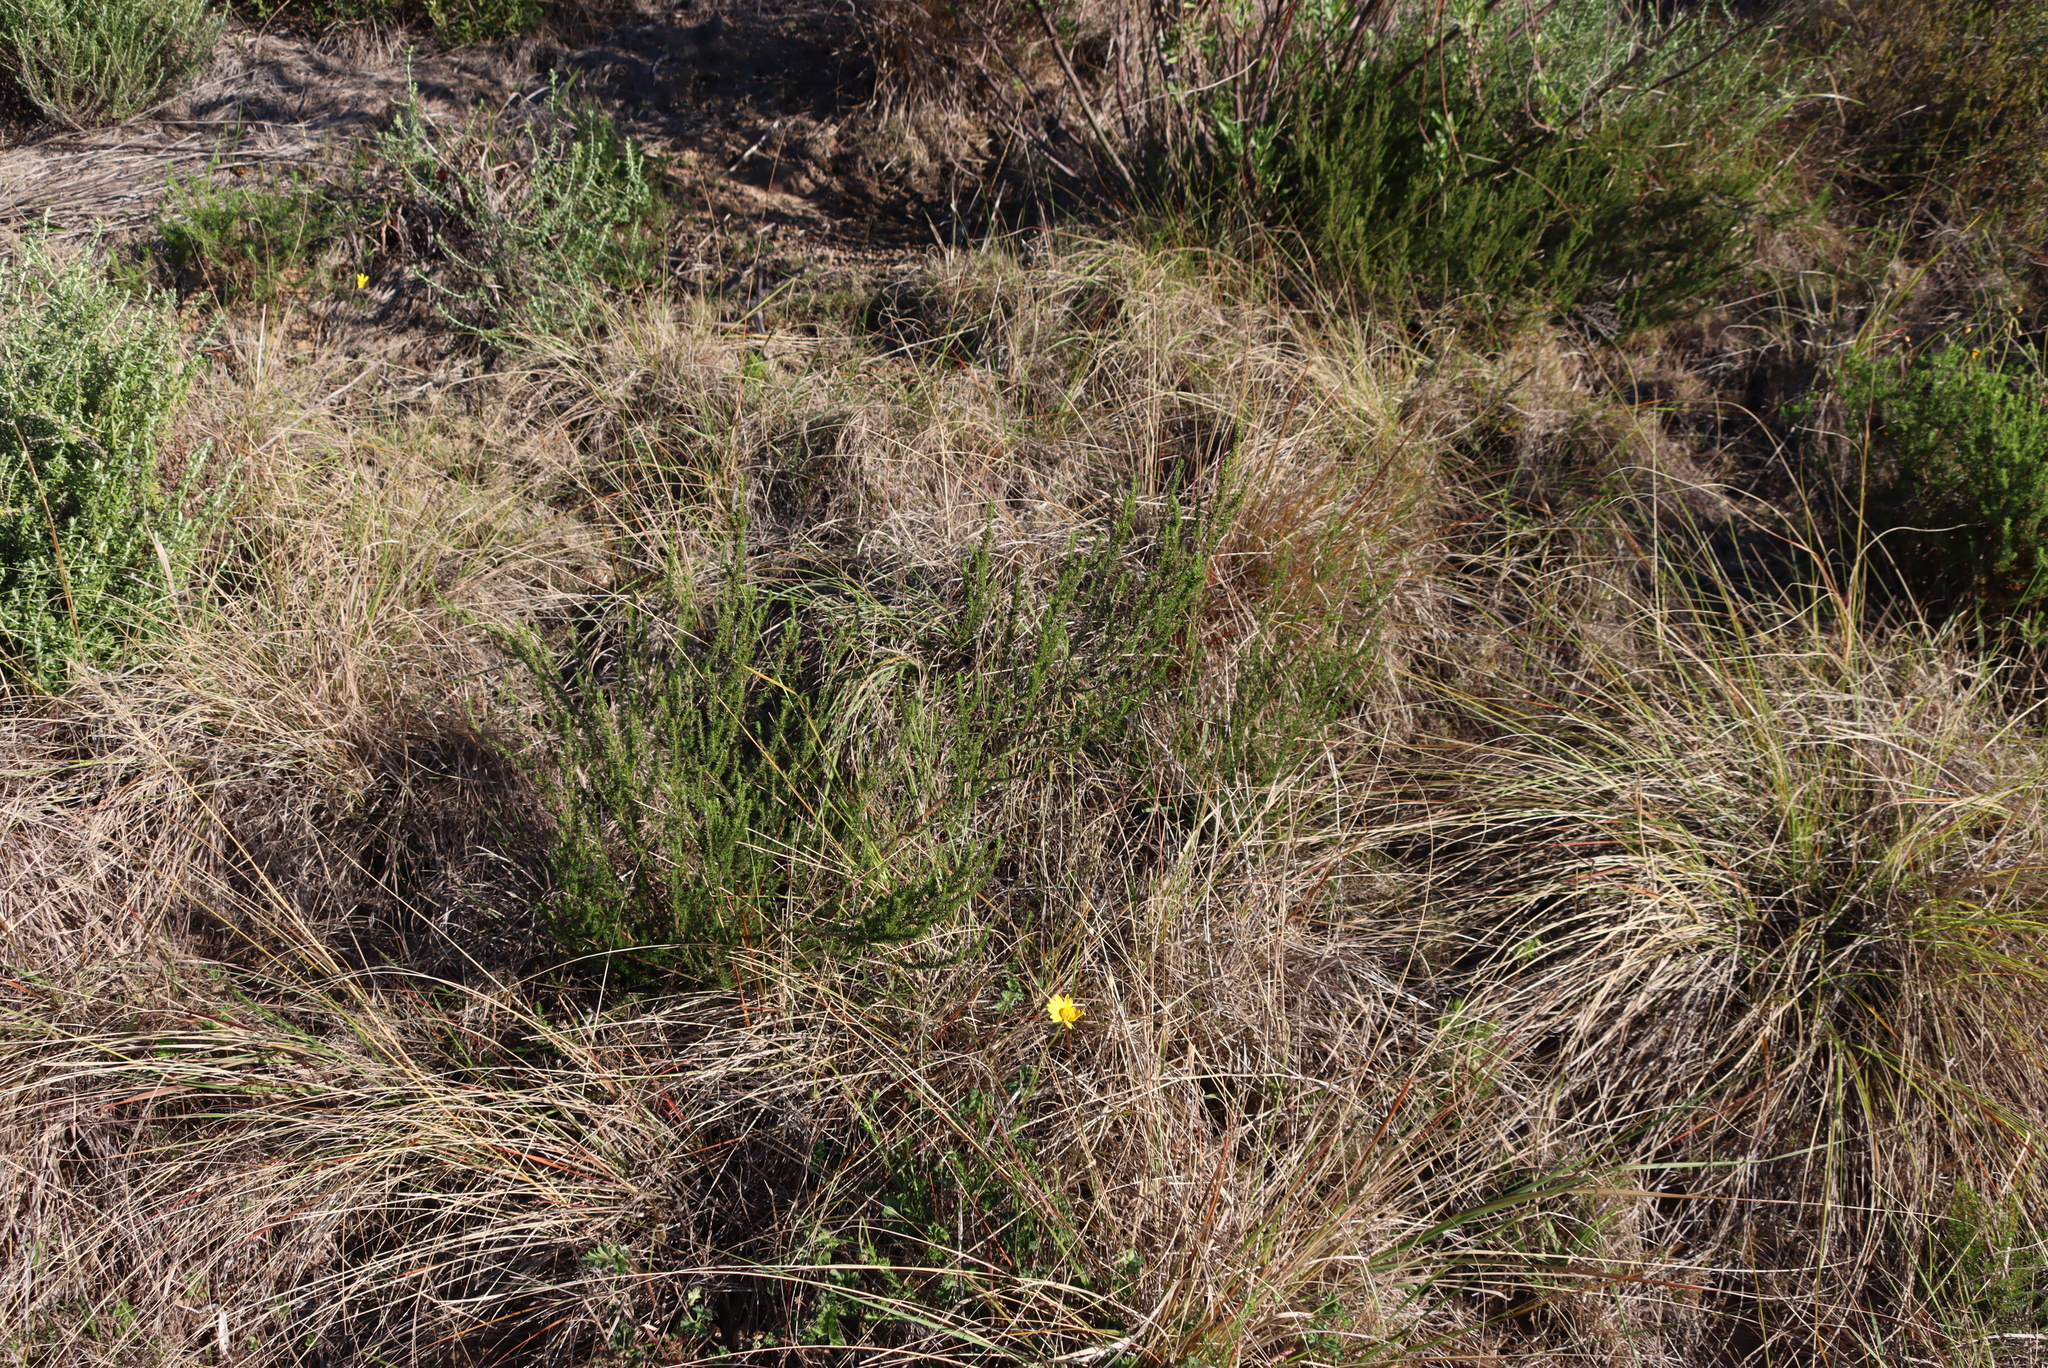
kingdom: Plantae
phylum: Tracheophyta
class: Magnoliopsida
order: Rosales
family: Rosaceae
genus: Cliffortia
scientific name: Cliffortia linearifolia
